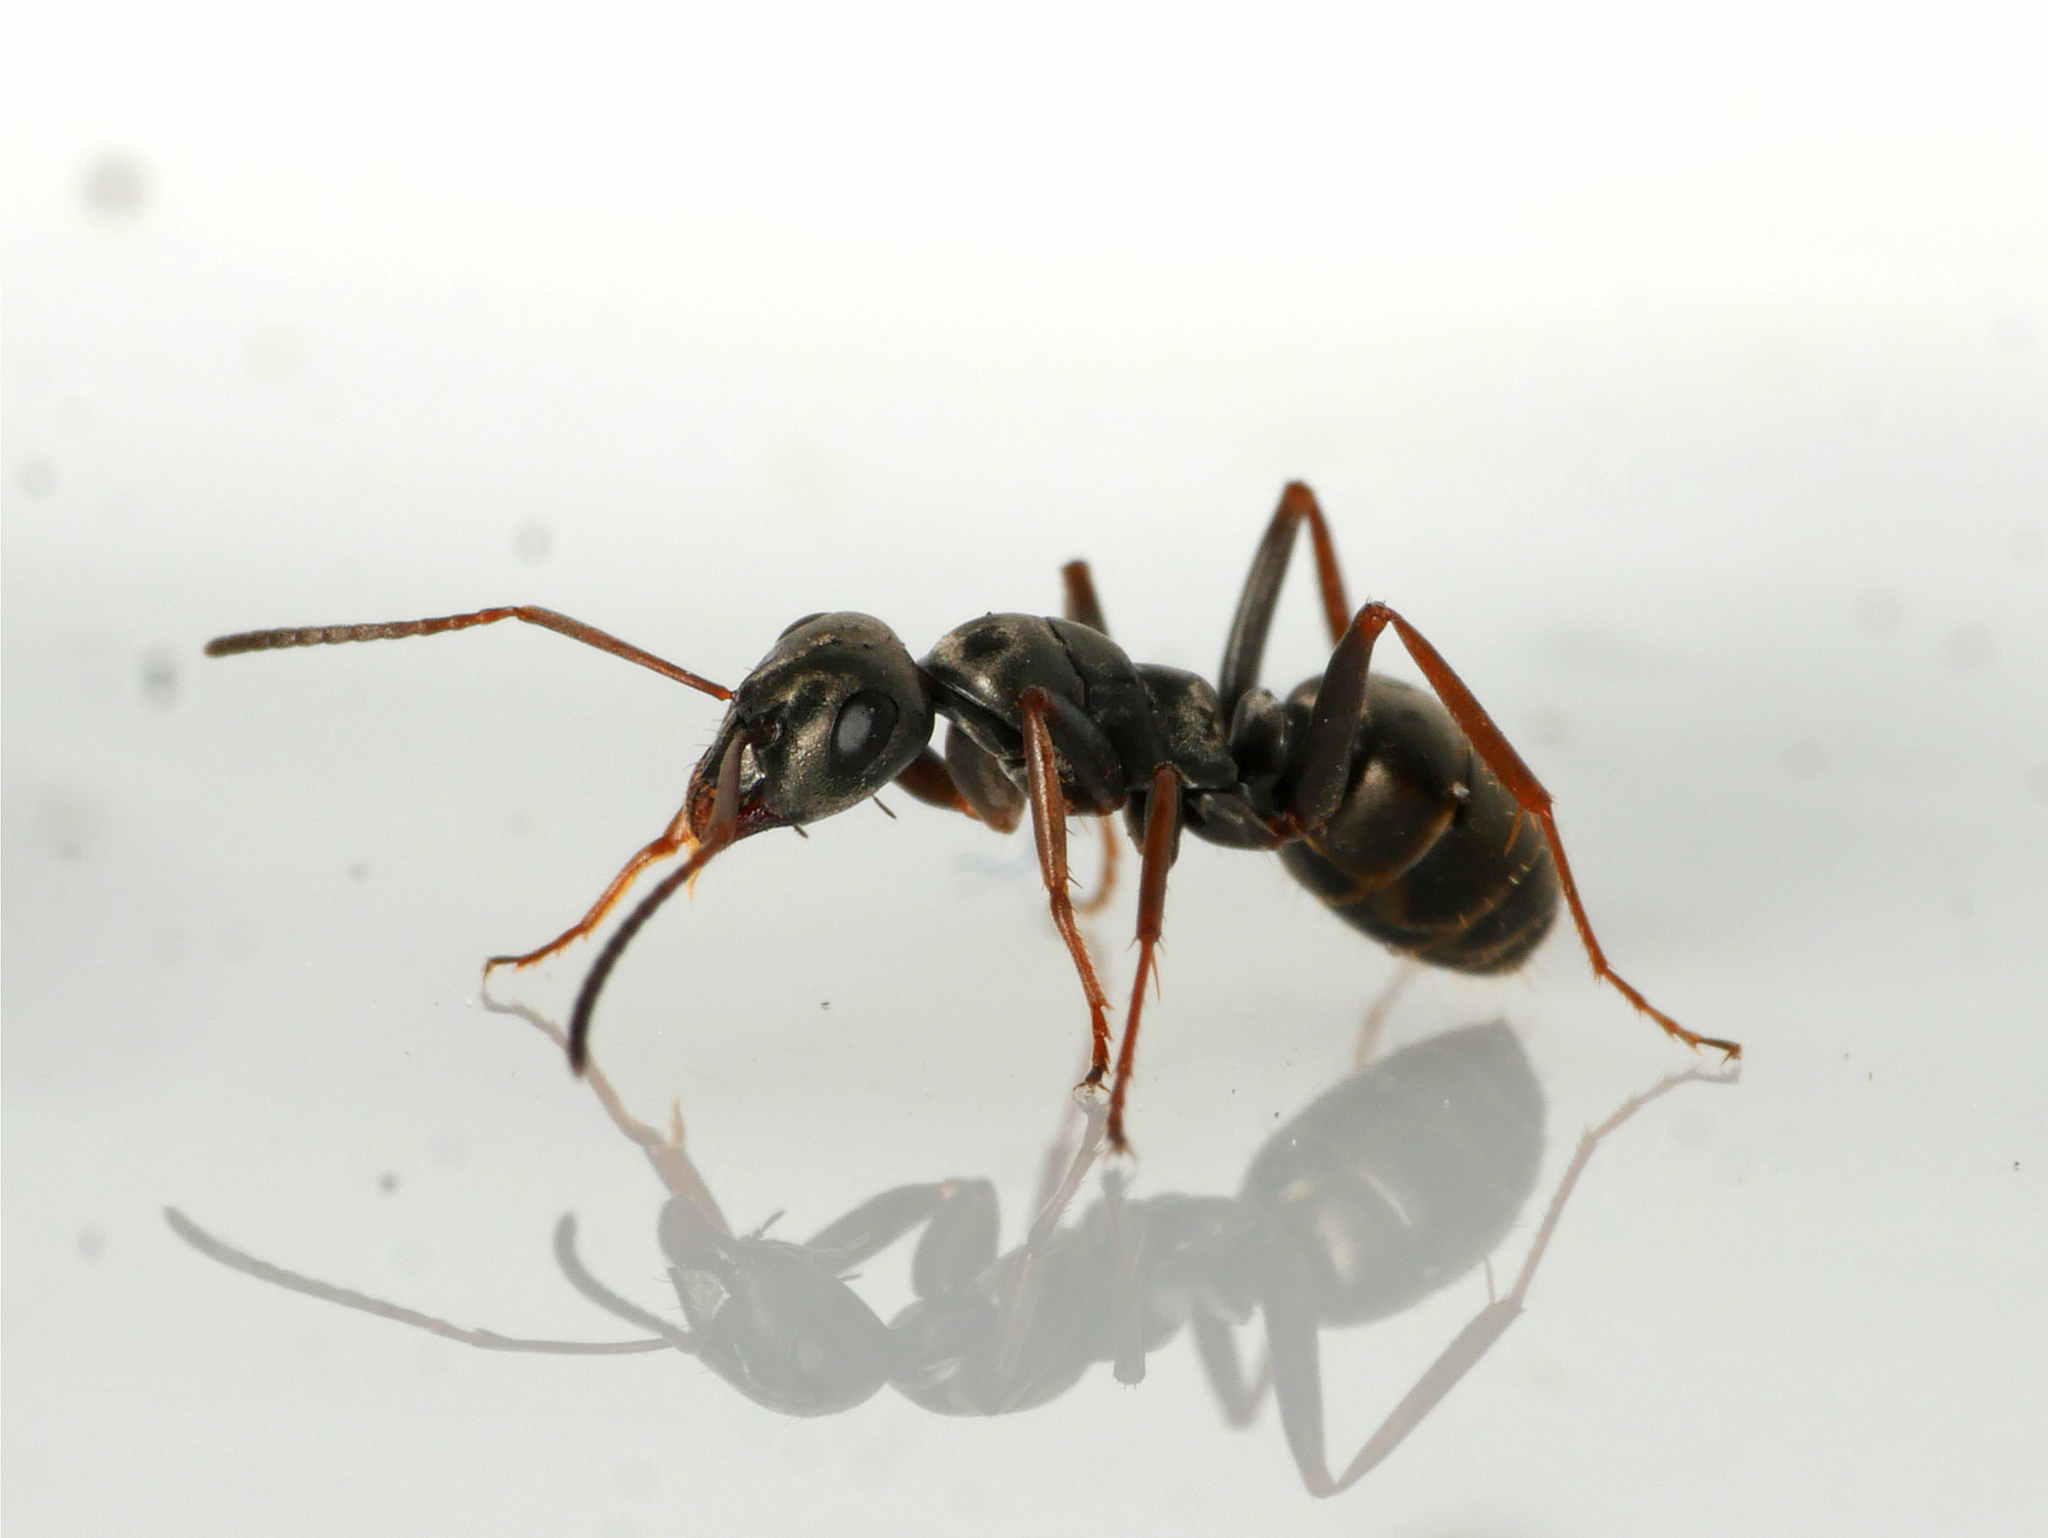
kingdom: Animalia
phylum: Arthropoda
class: Insecta
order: Hymenoptera
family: Formicidae
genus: Formica
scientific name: Formica fusca
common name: Silky ant
